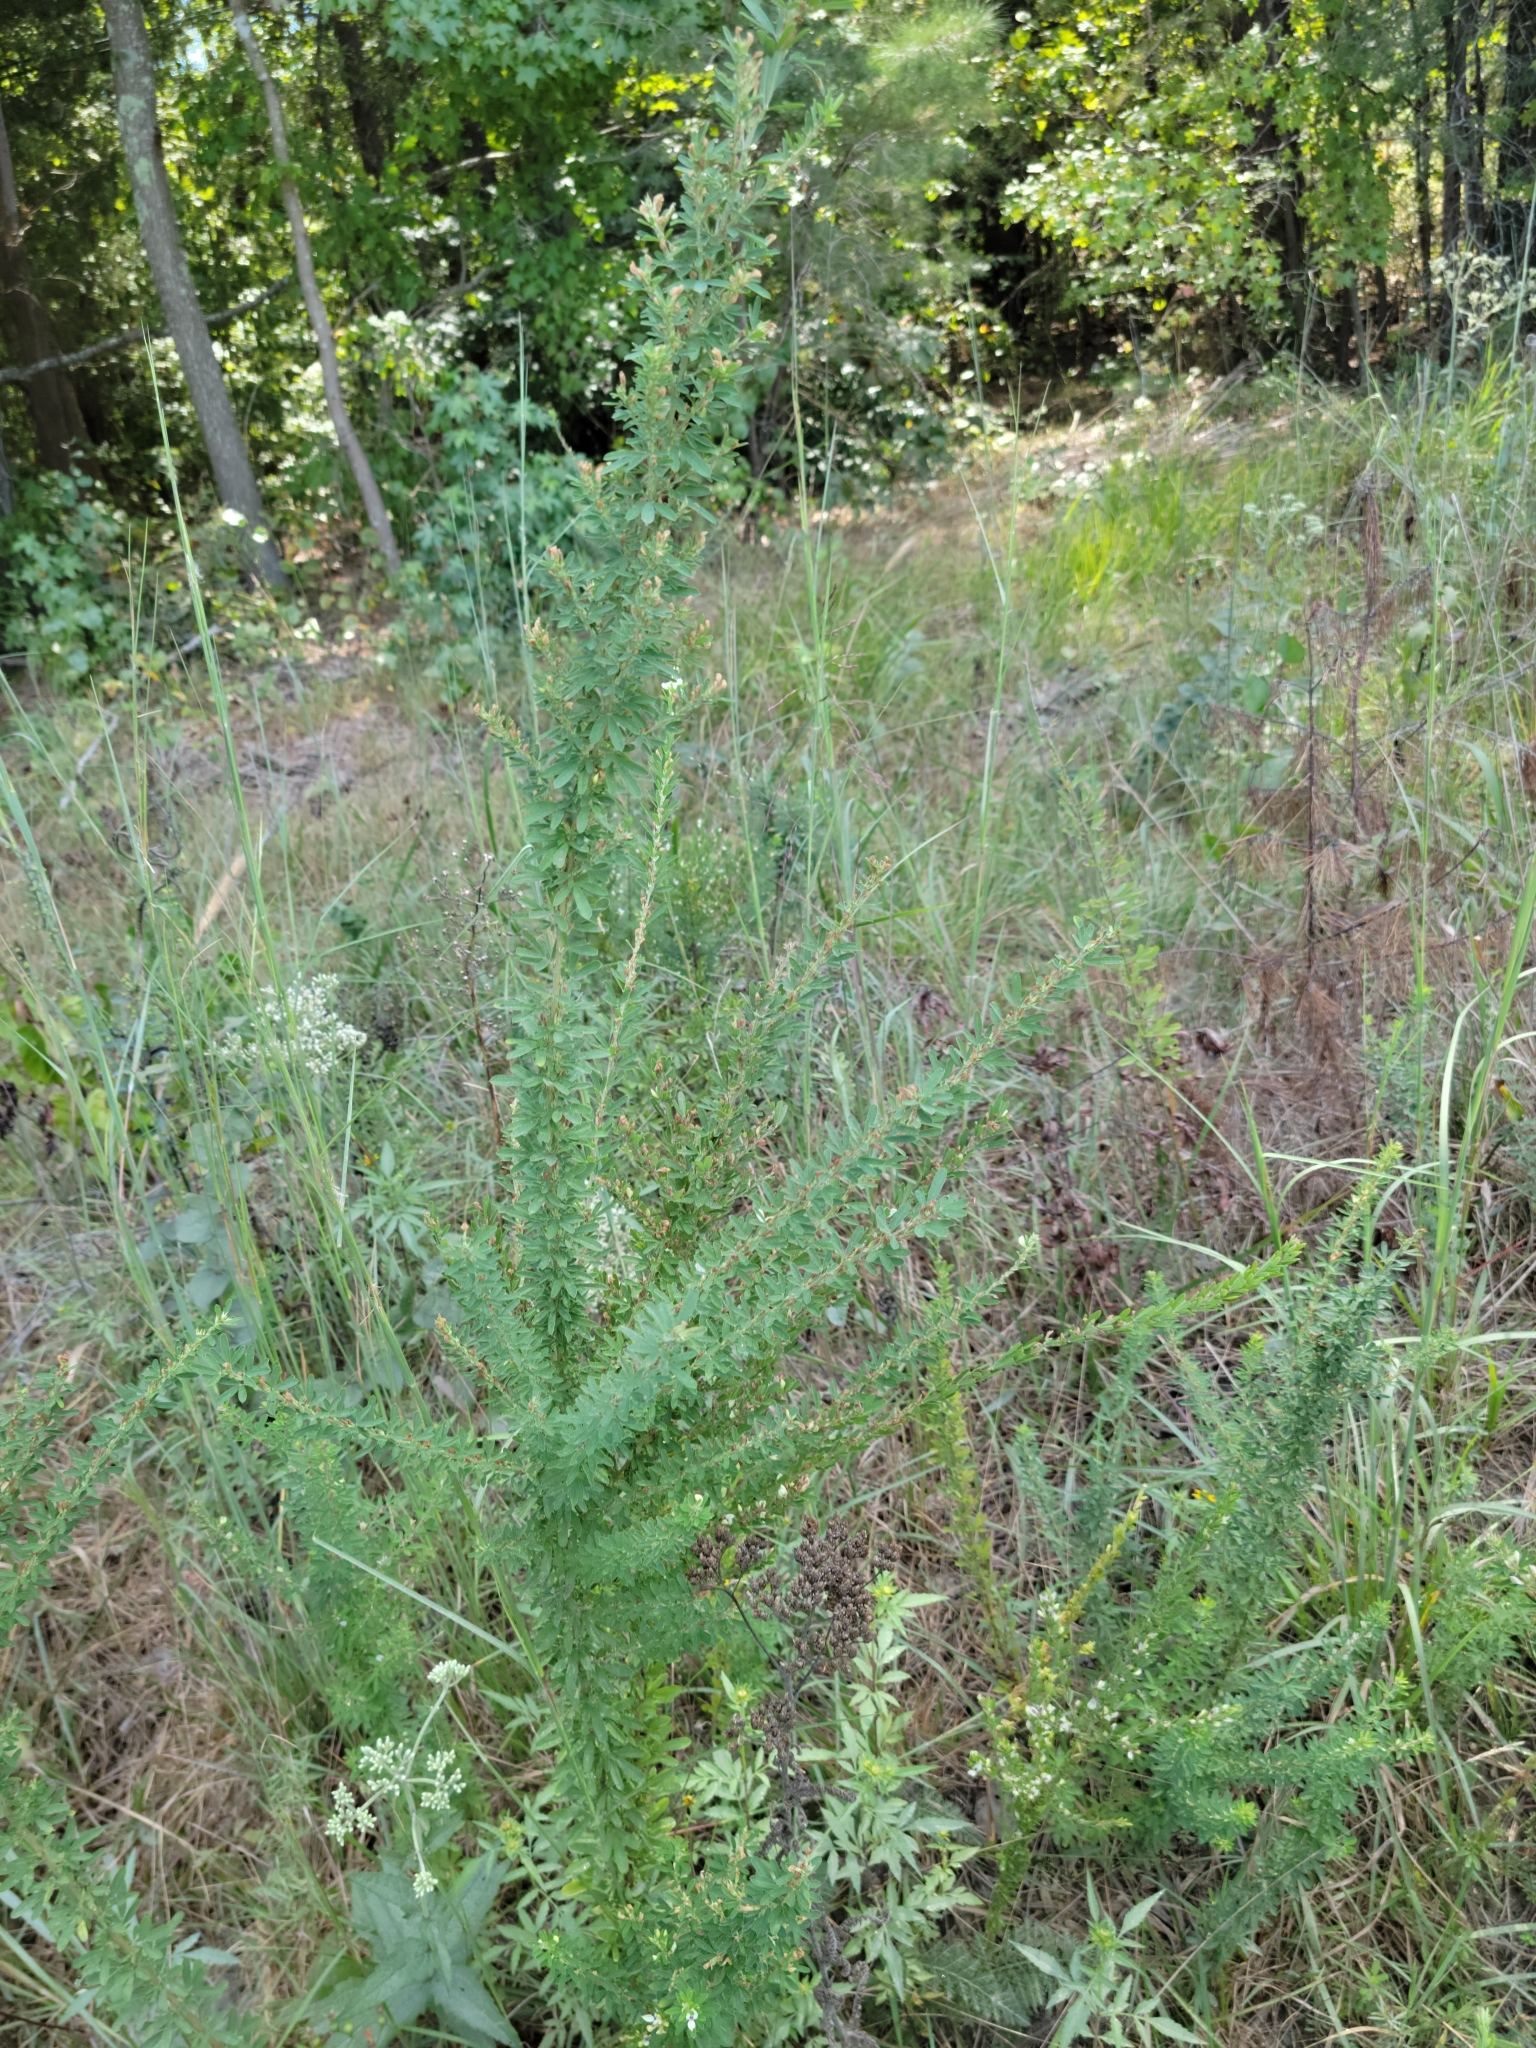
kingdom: Plantae
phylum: Tracheophyta
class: Magnoliopsida
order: Fabales
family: Fabaceae
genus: Lespedeza
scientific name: Lespedeza cuneata
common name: Chinese bush-clover
